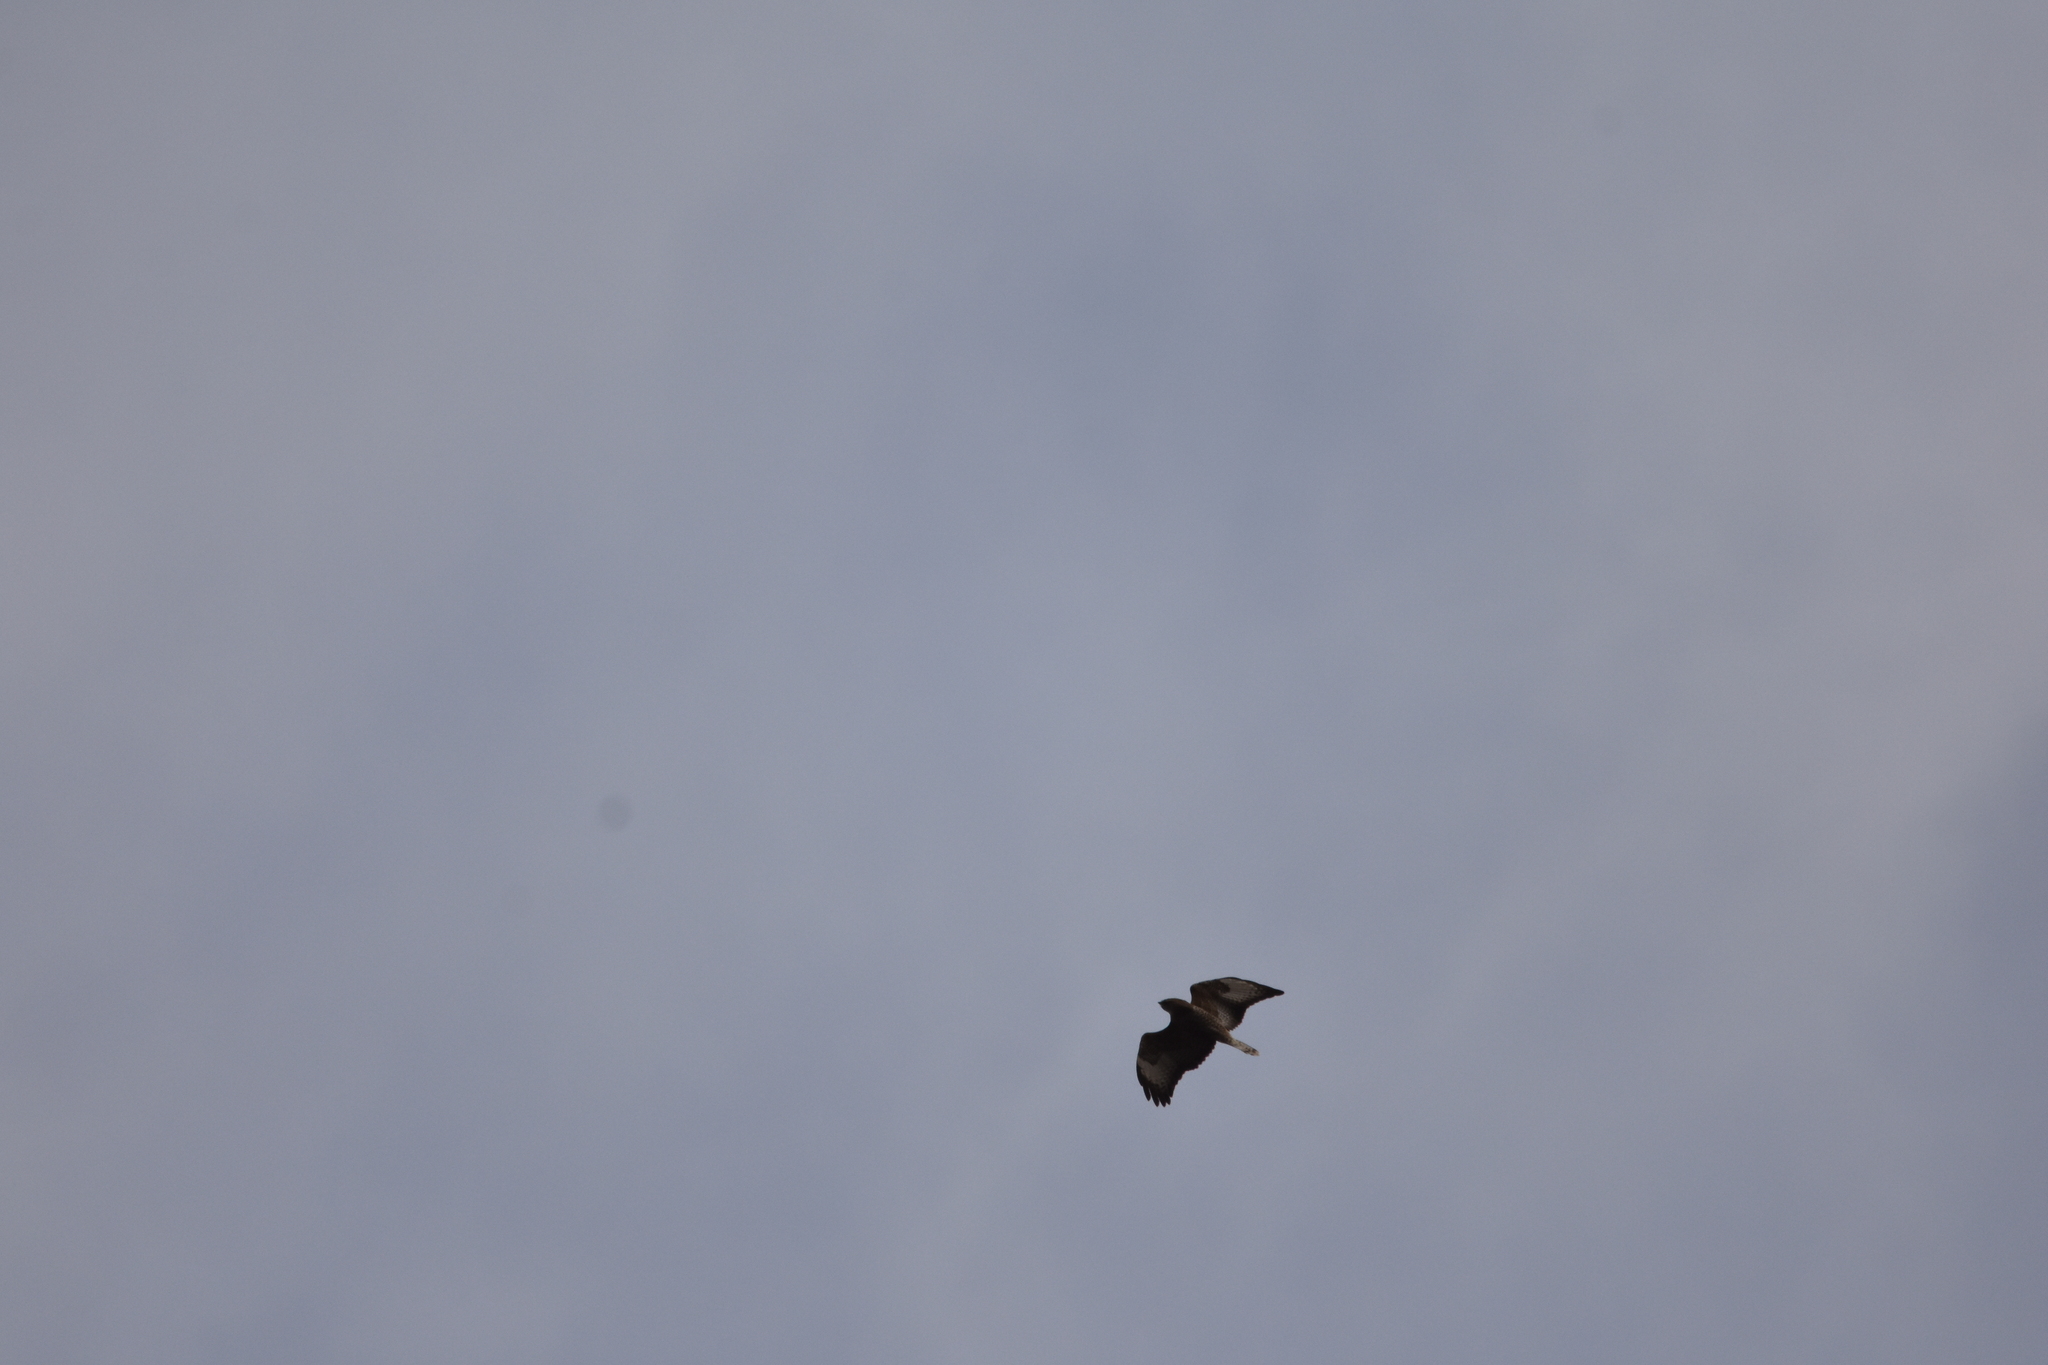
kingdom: Animalia
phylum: Chordata
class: Aves
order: Accipitriformes
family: Accipitridae
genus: Buteo
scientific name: Buteo buteo
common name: Common buzzard
